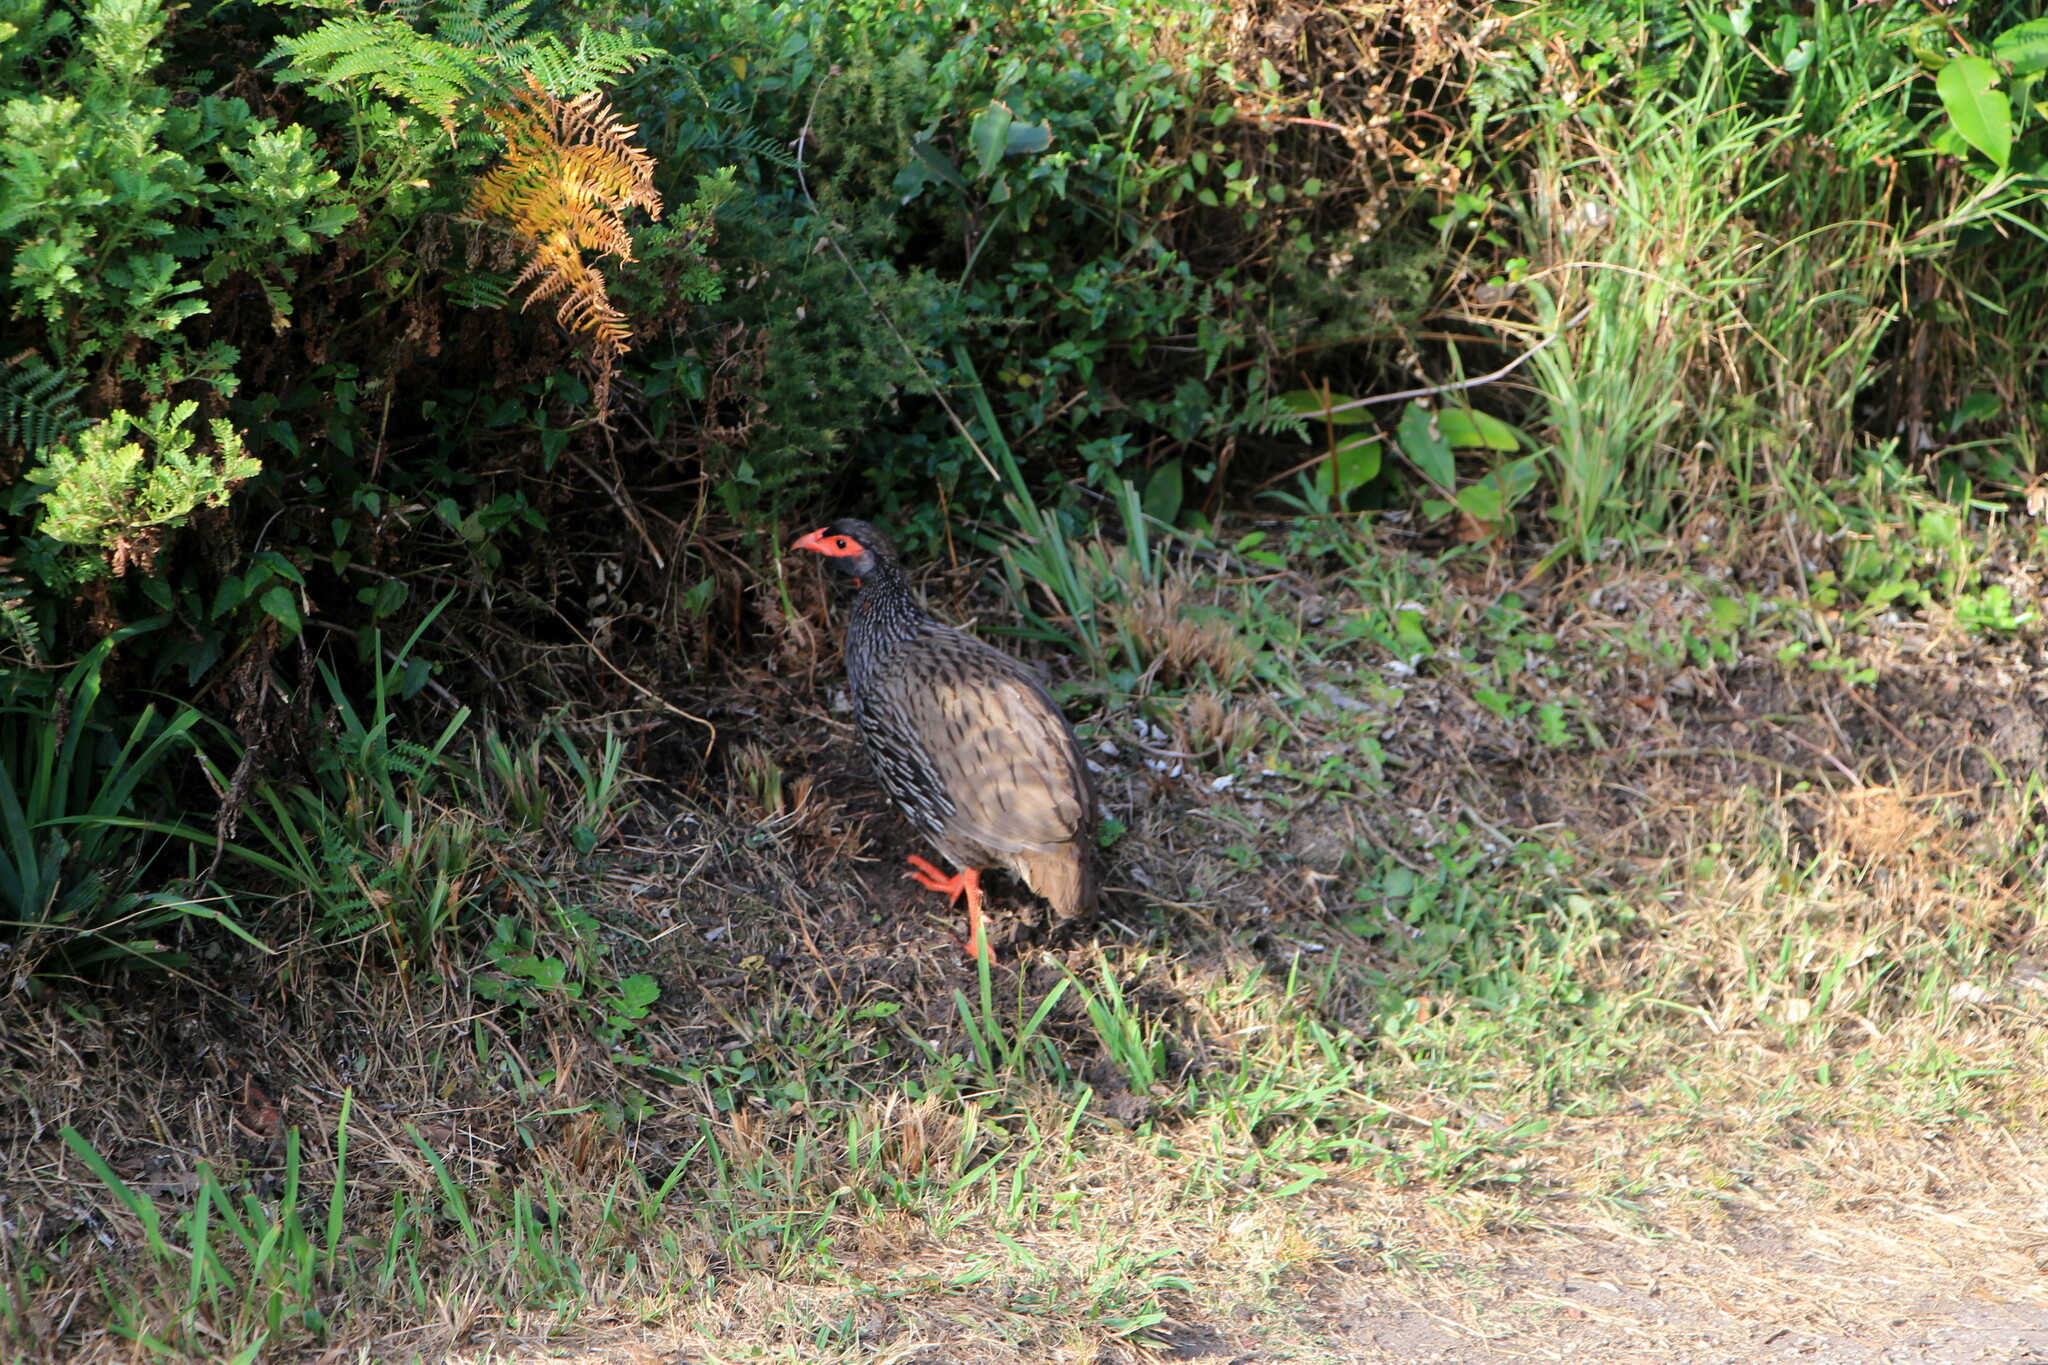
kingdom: Animalia
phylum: Chordata
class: Aves
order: Galliformes
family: Phasianidae
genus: Pternistis
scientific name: Pternistis afer
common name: Red-necked spurfowl
